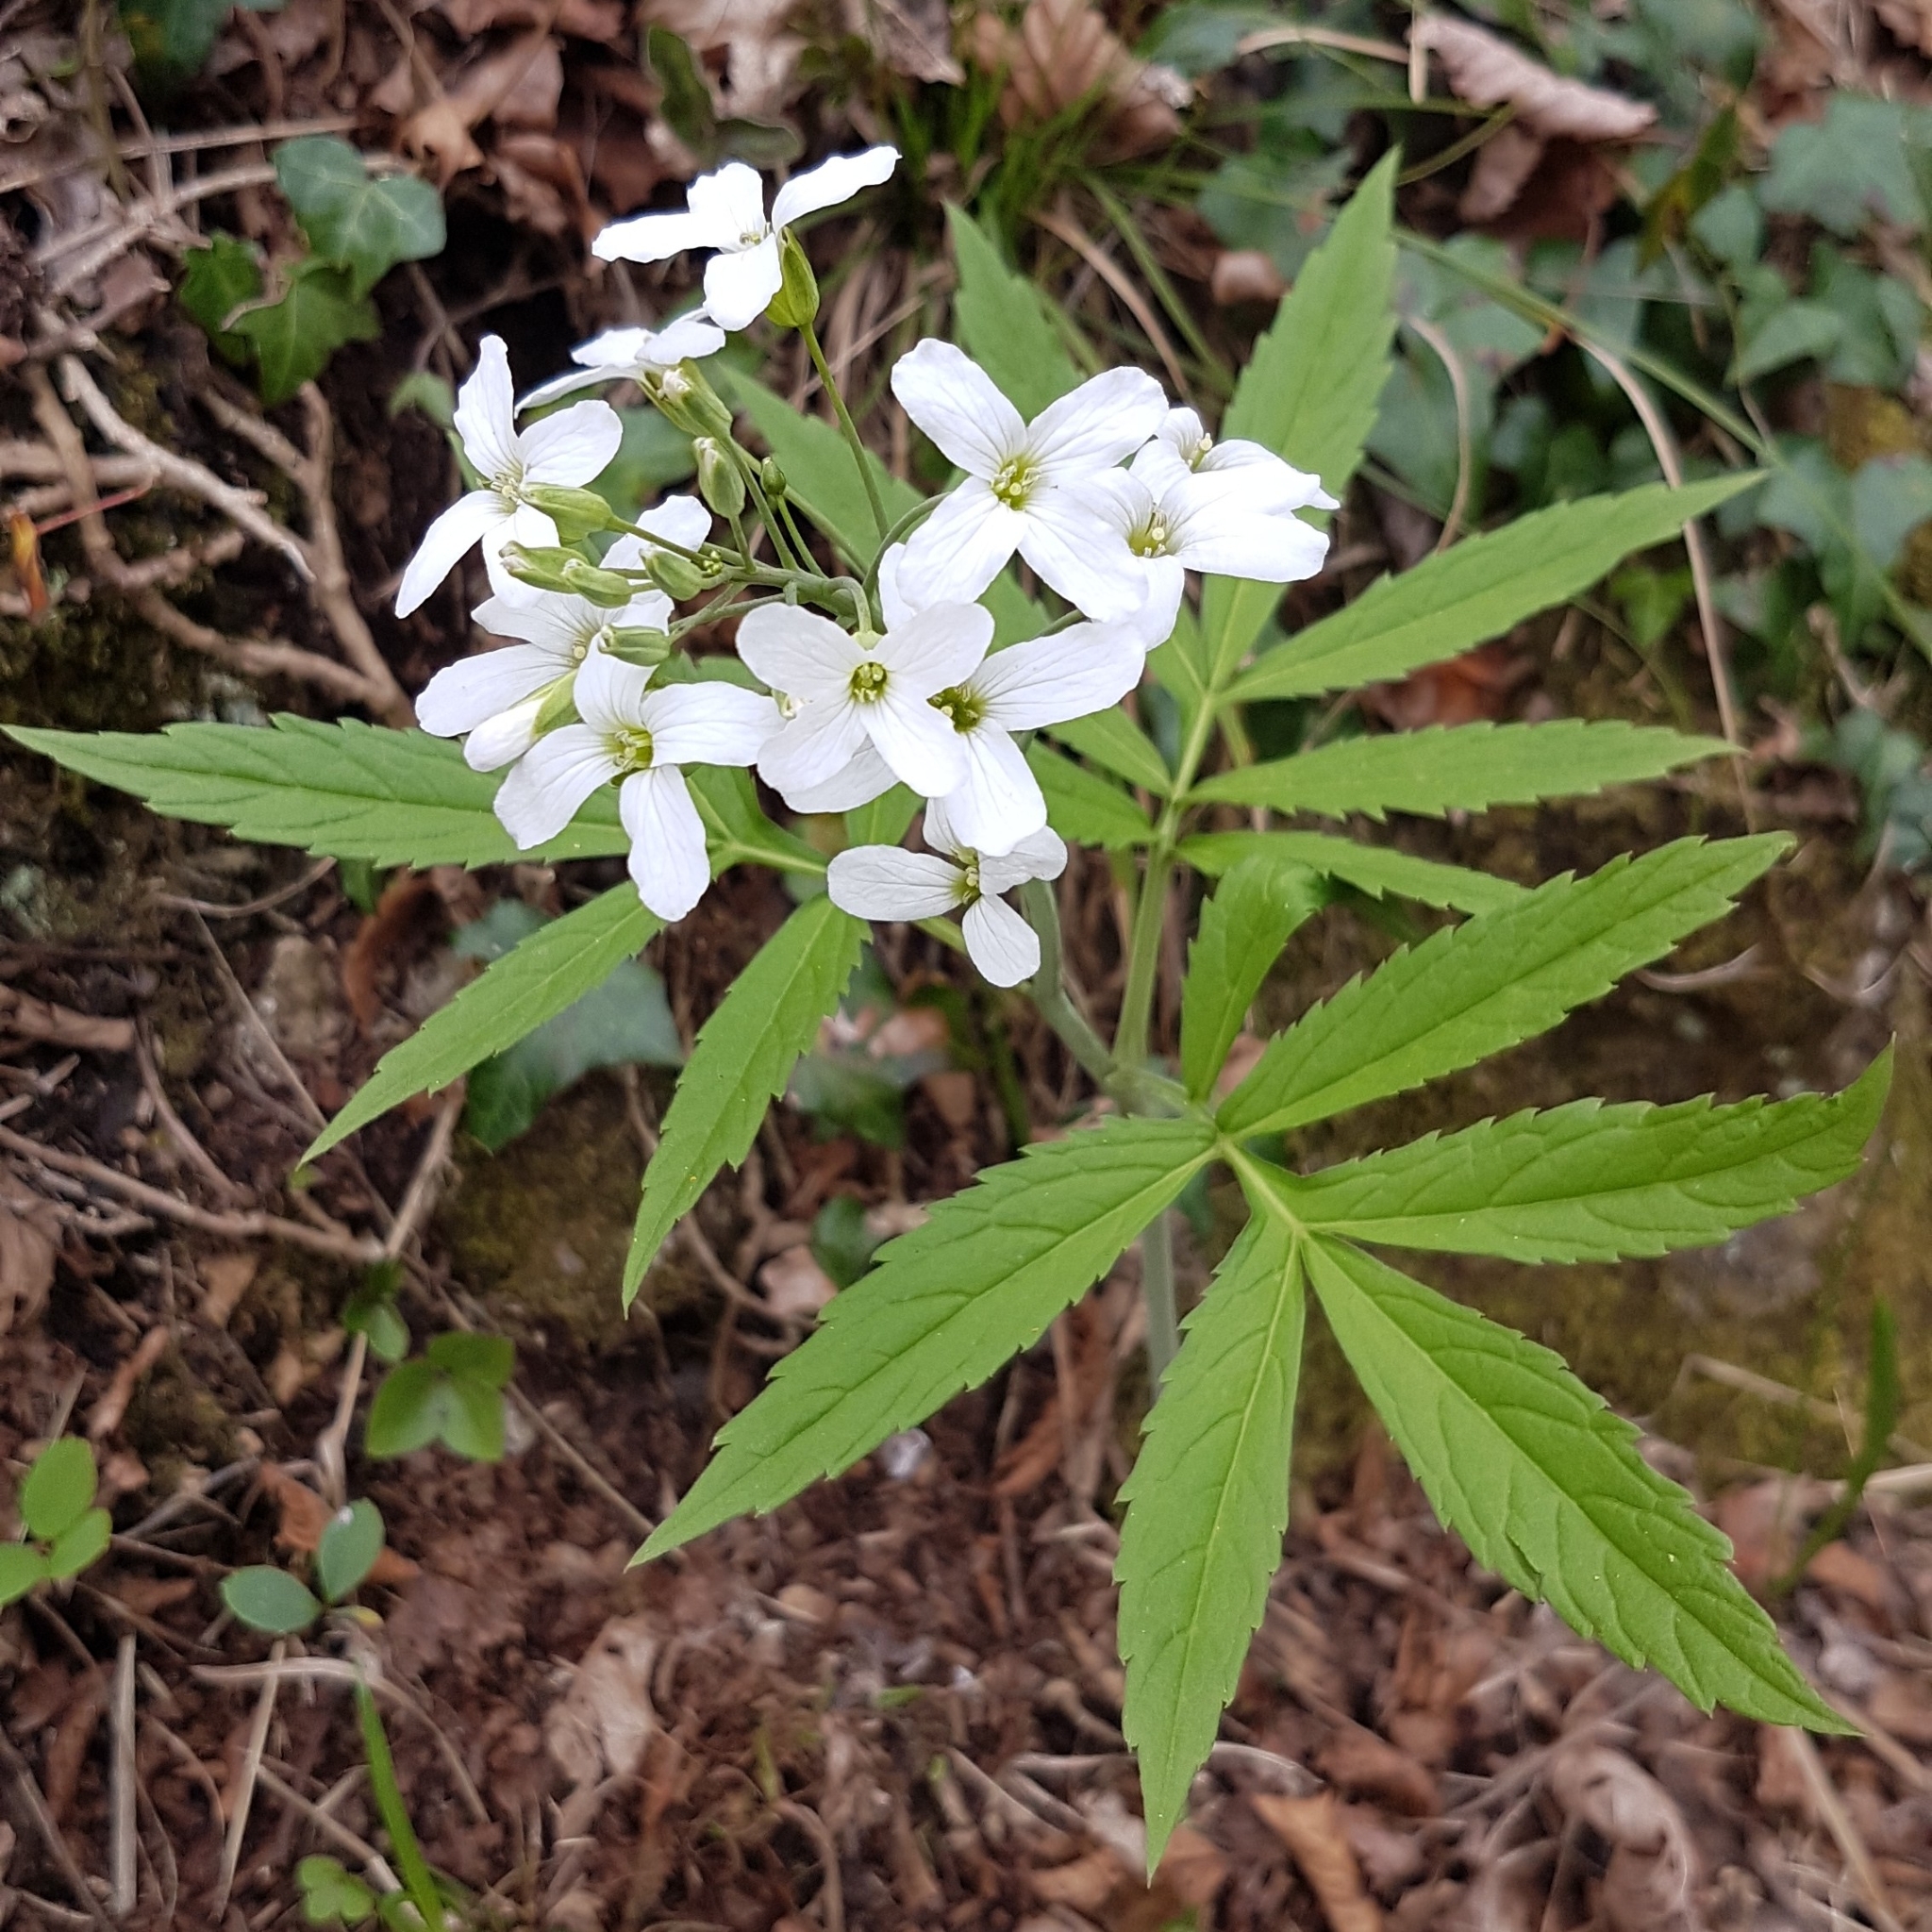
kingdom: Plantae
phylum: Tracheophyta
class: Magnoliopsida
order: Brassicales
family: Brassicaceae
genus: Cardamine
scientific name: Cardamine heptaphylla
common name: Pinnate coralroot
